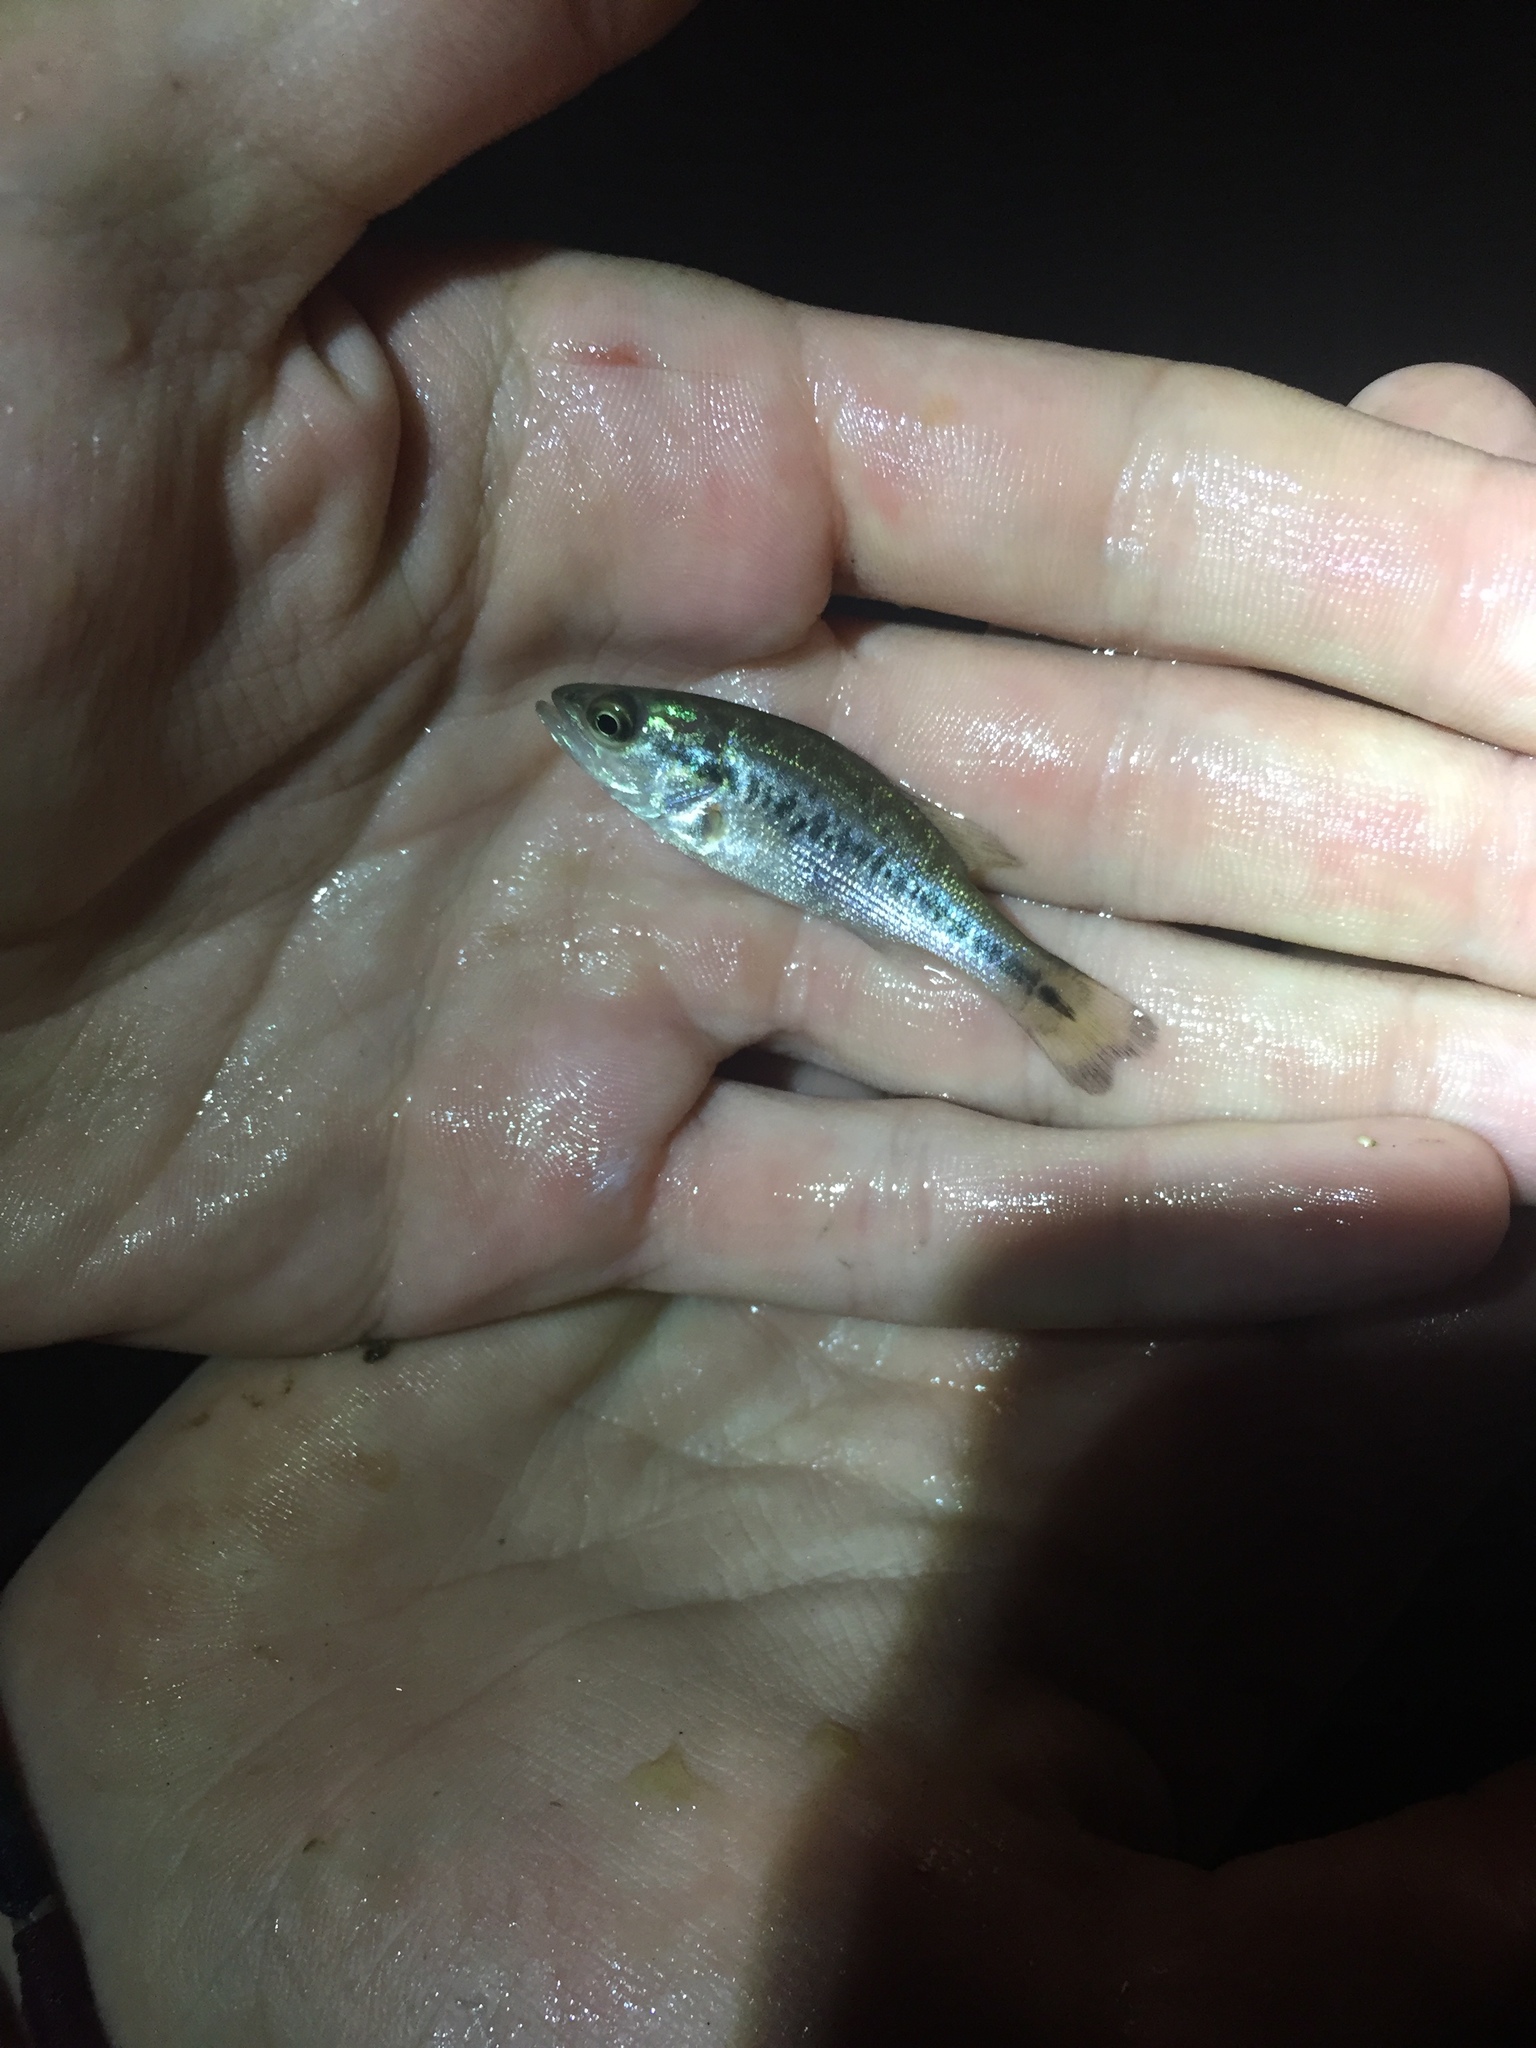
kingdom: Animalia
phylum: Chordata
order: Perciformes
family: Centrarchidae
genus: Micropterus
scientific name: Micropterus
